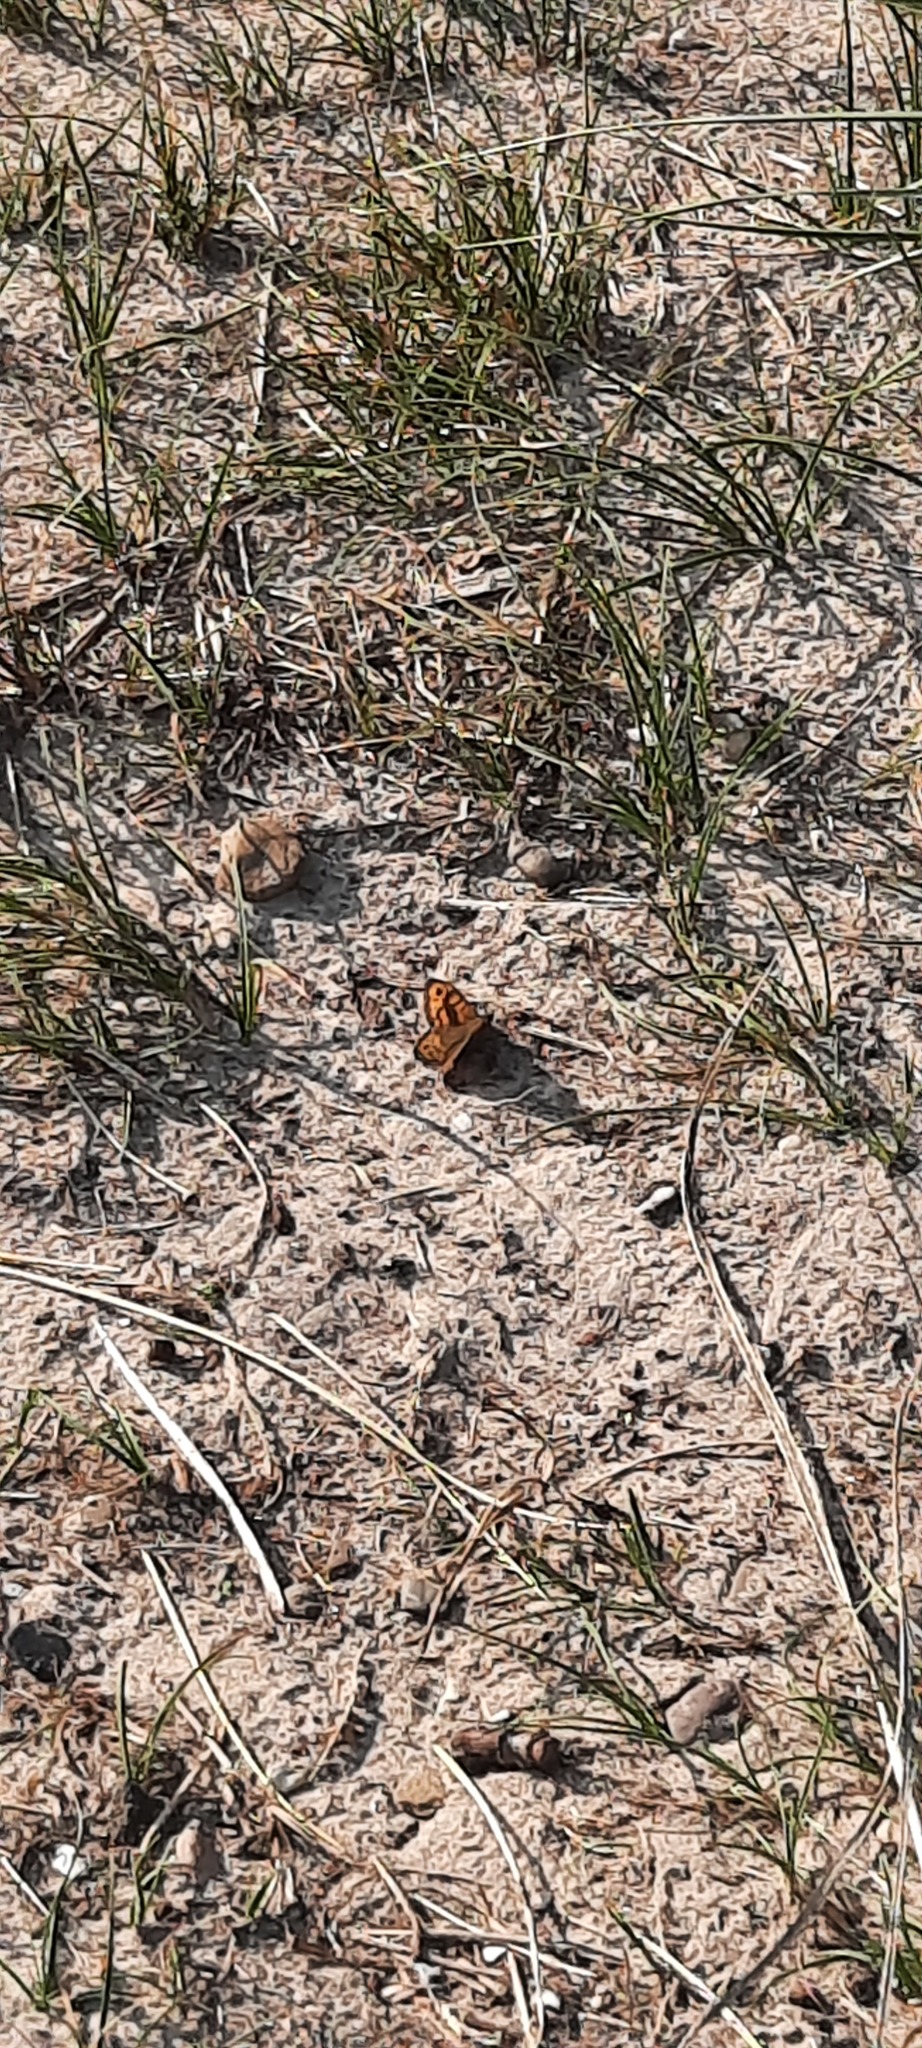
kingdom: Animalia
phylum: Arthropoda
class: Insecta
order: Lepidoptera
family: Nymphalidae
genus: Pararge
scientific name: Pararge Lasiommata megera
